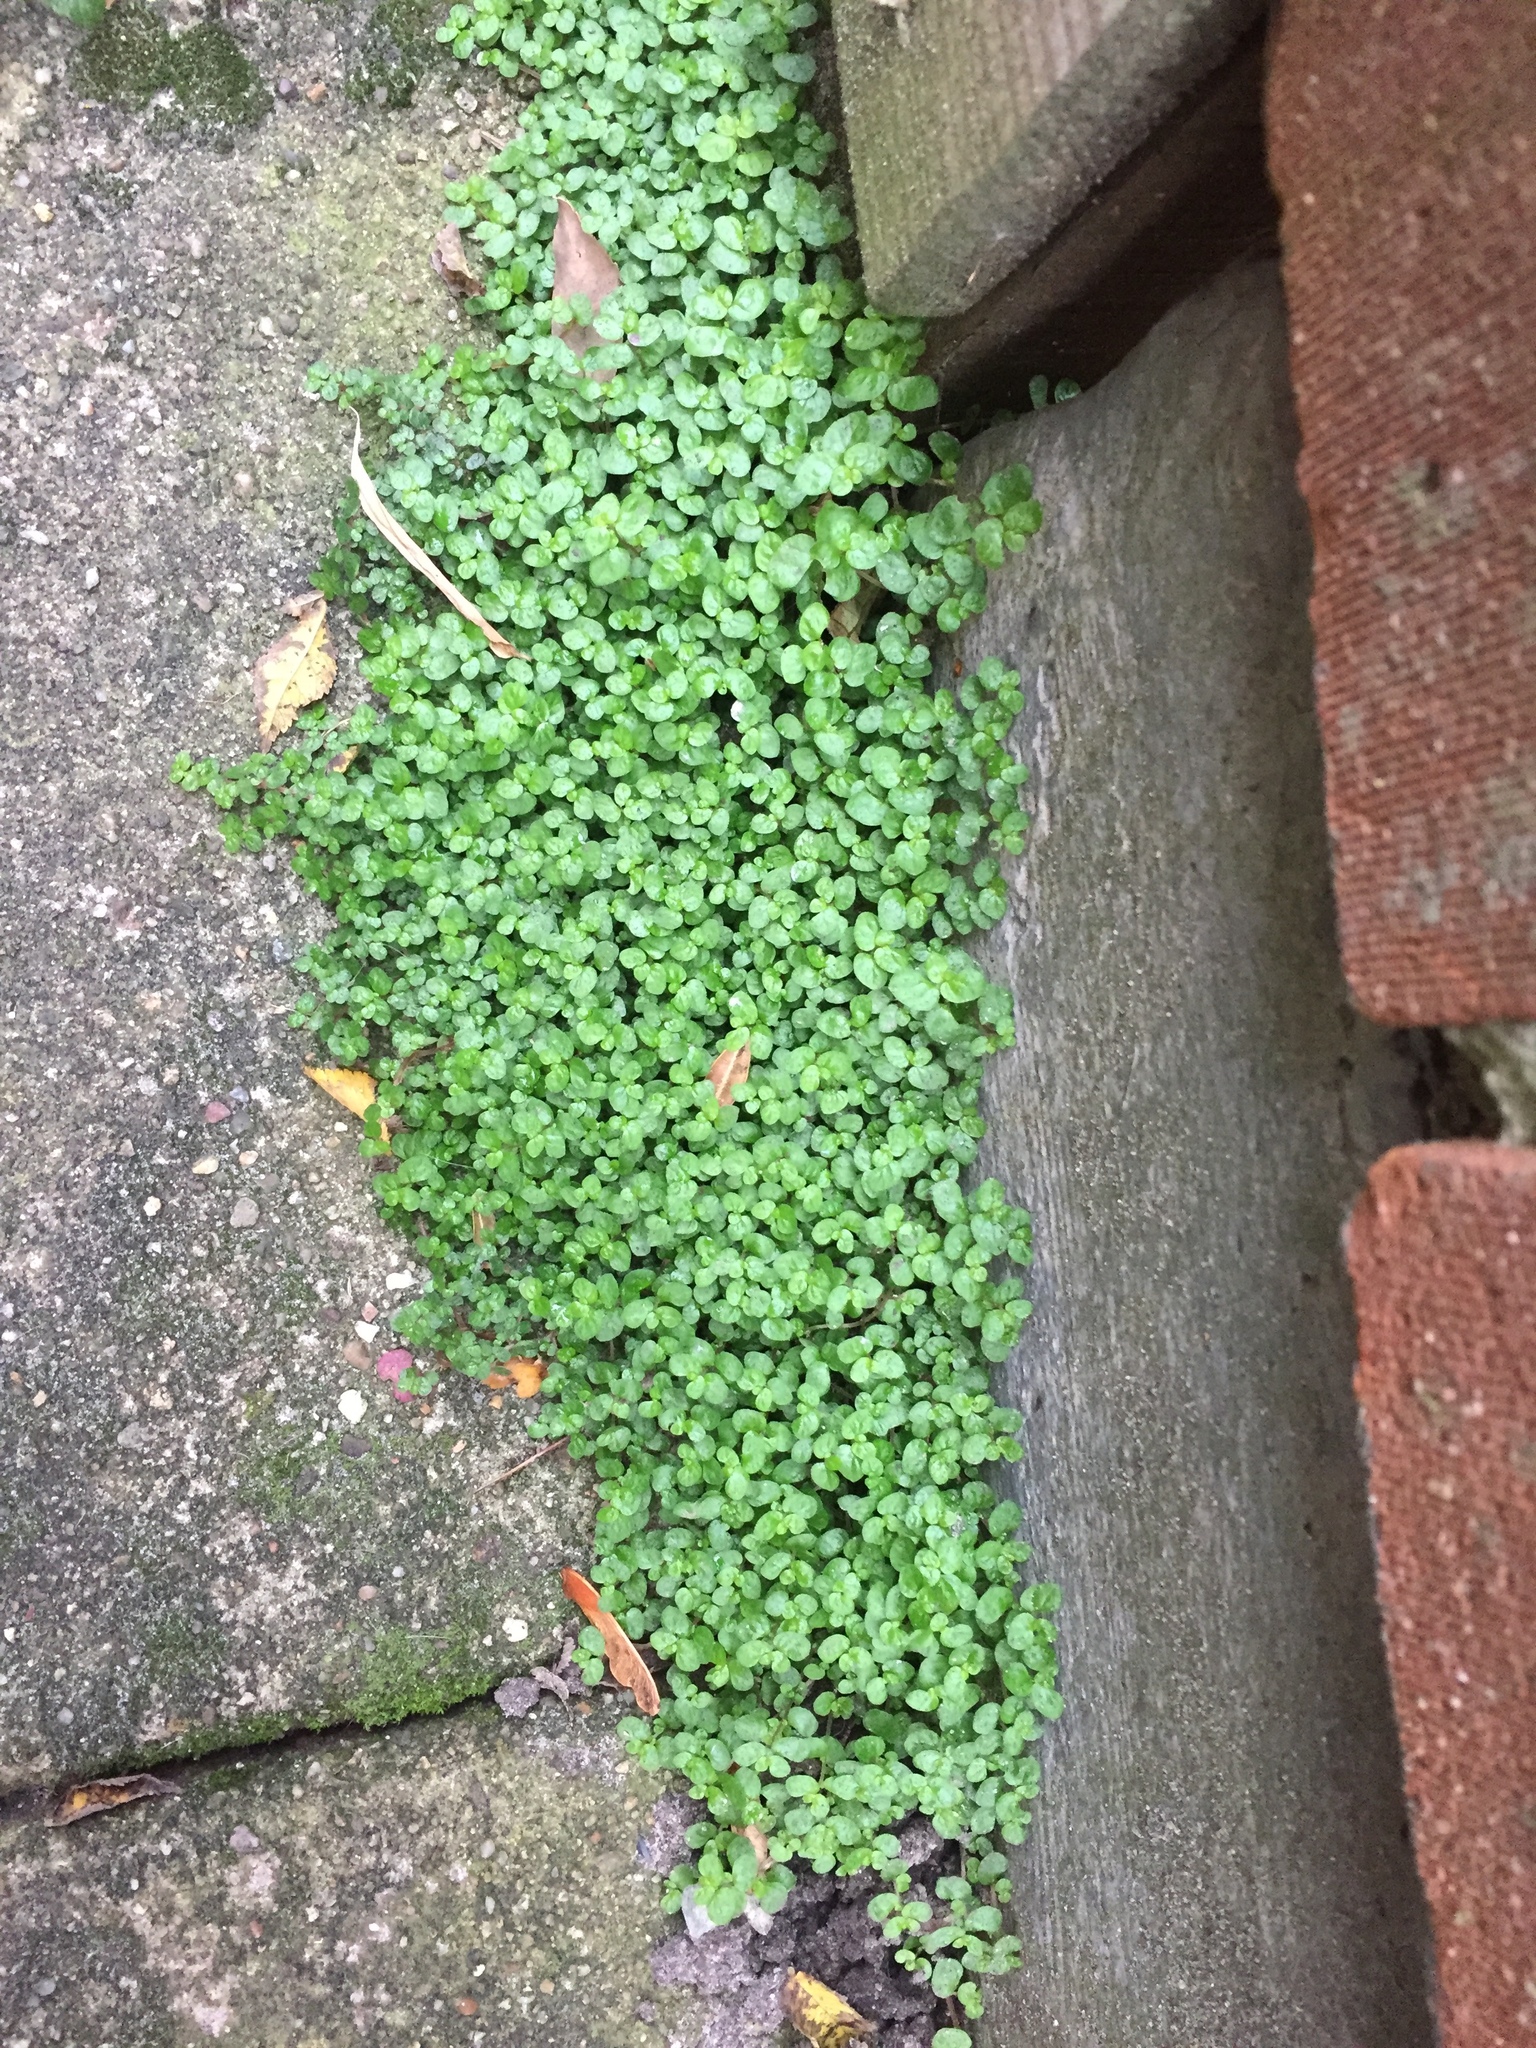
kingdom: Plantae
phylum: Tracheophyta
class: Magnoliopsida
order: Rosales
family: Urticaceae
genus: Soleirolia
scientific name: Soleirolia soleirolii
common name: Mind-your-own-business
